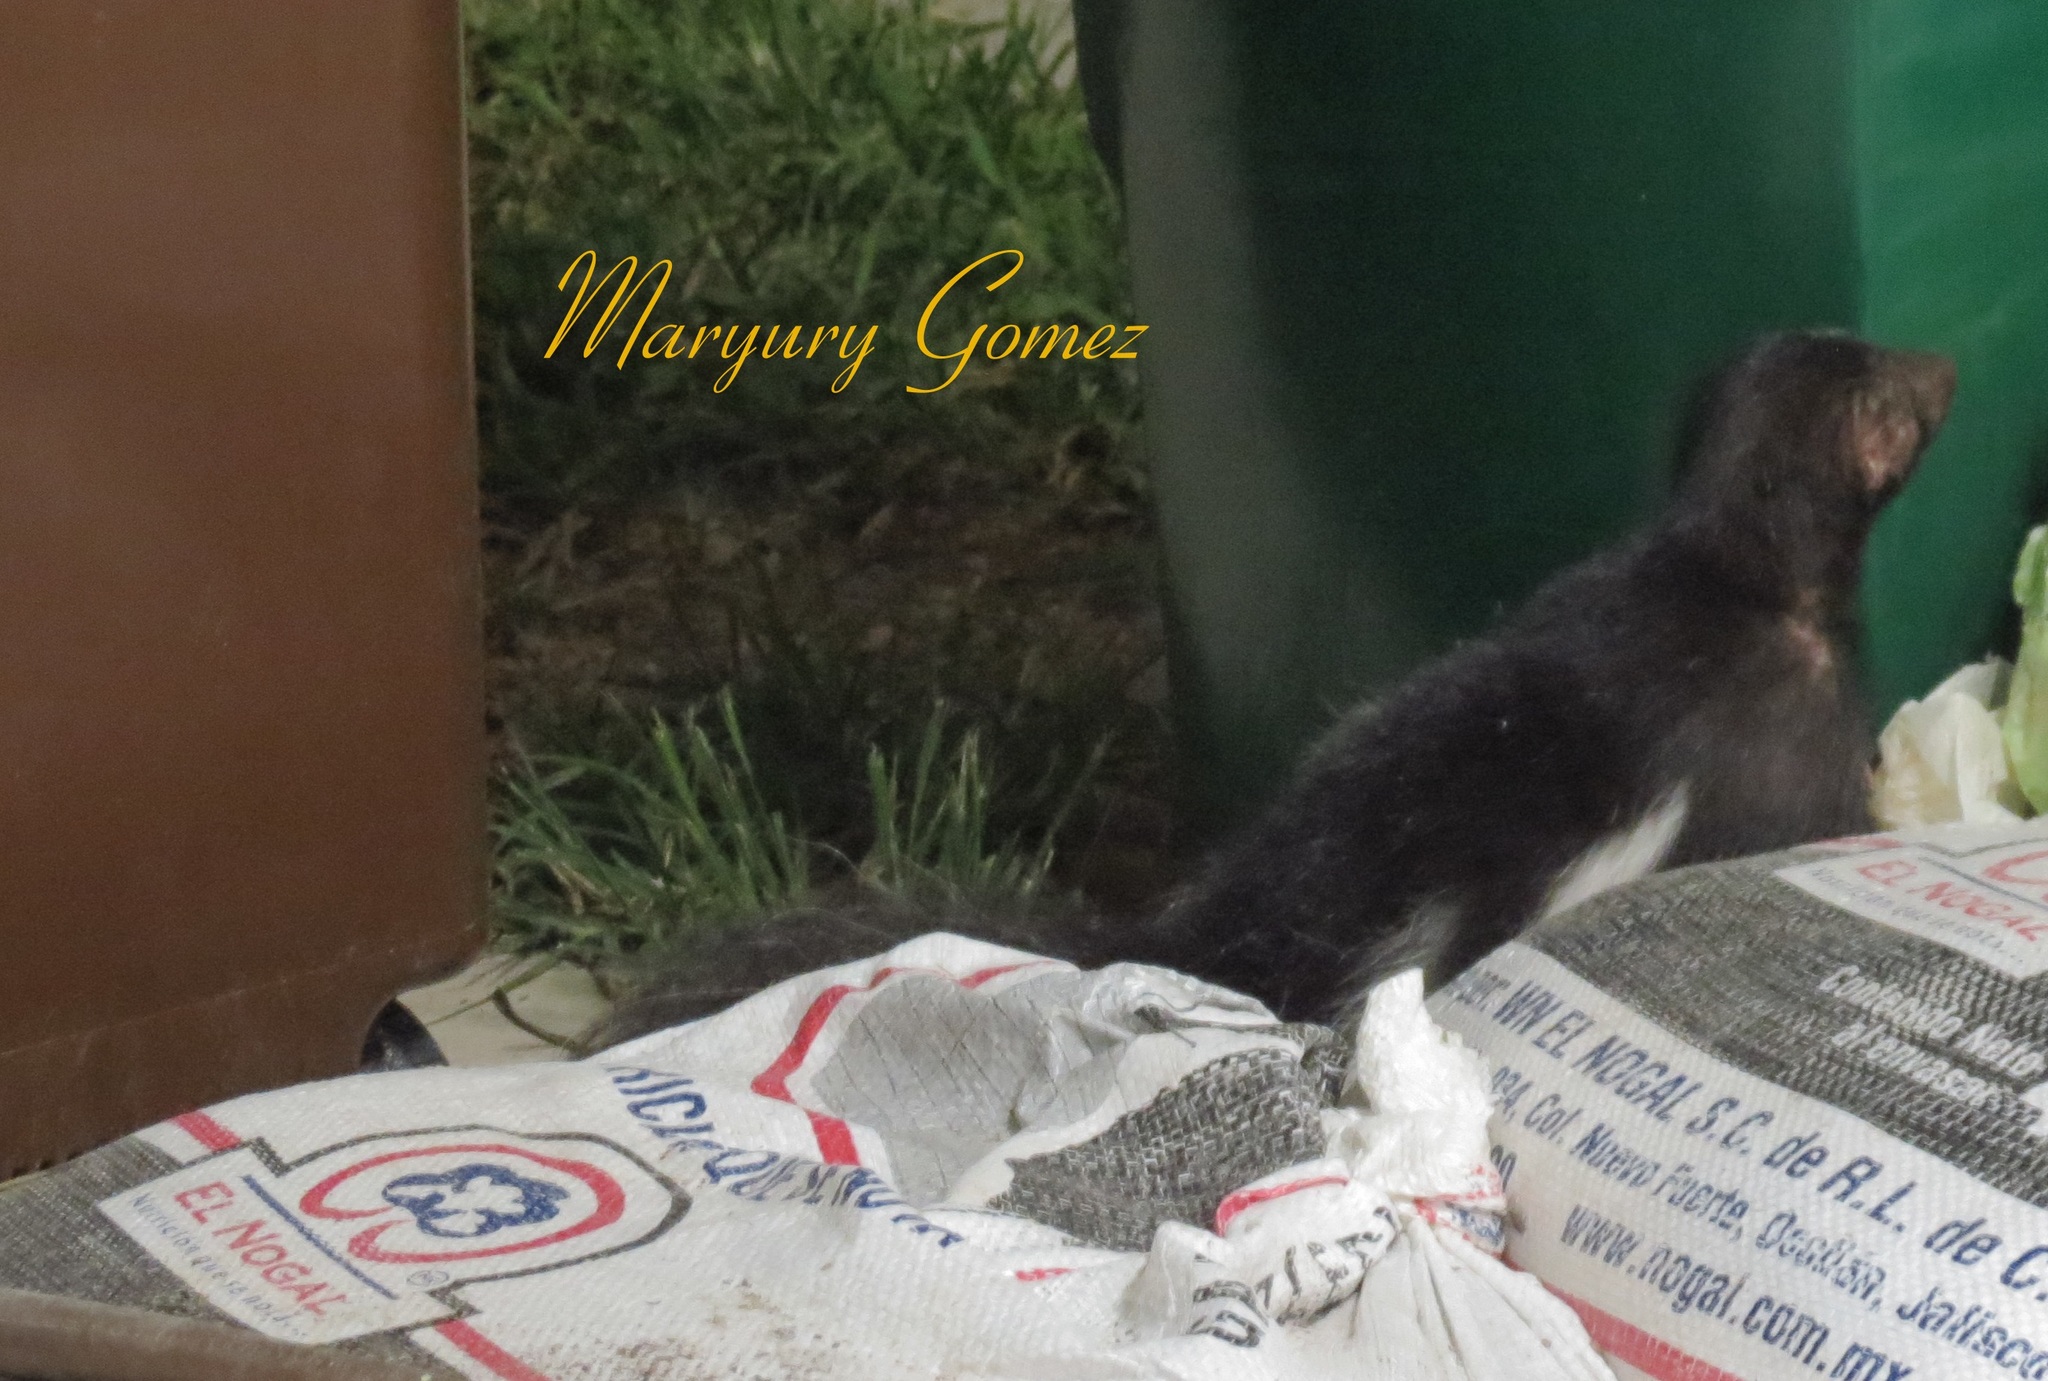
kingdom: Animalia
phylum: Chordata
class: Mammalia
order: Carnivora
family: Mephitidae
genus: Mephitis
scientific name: Mephitis macroura
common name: Hooded skunk
